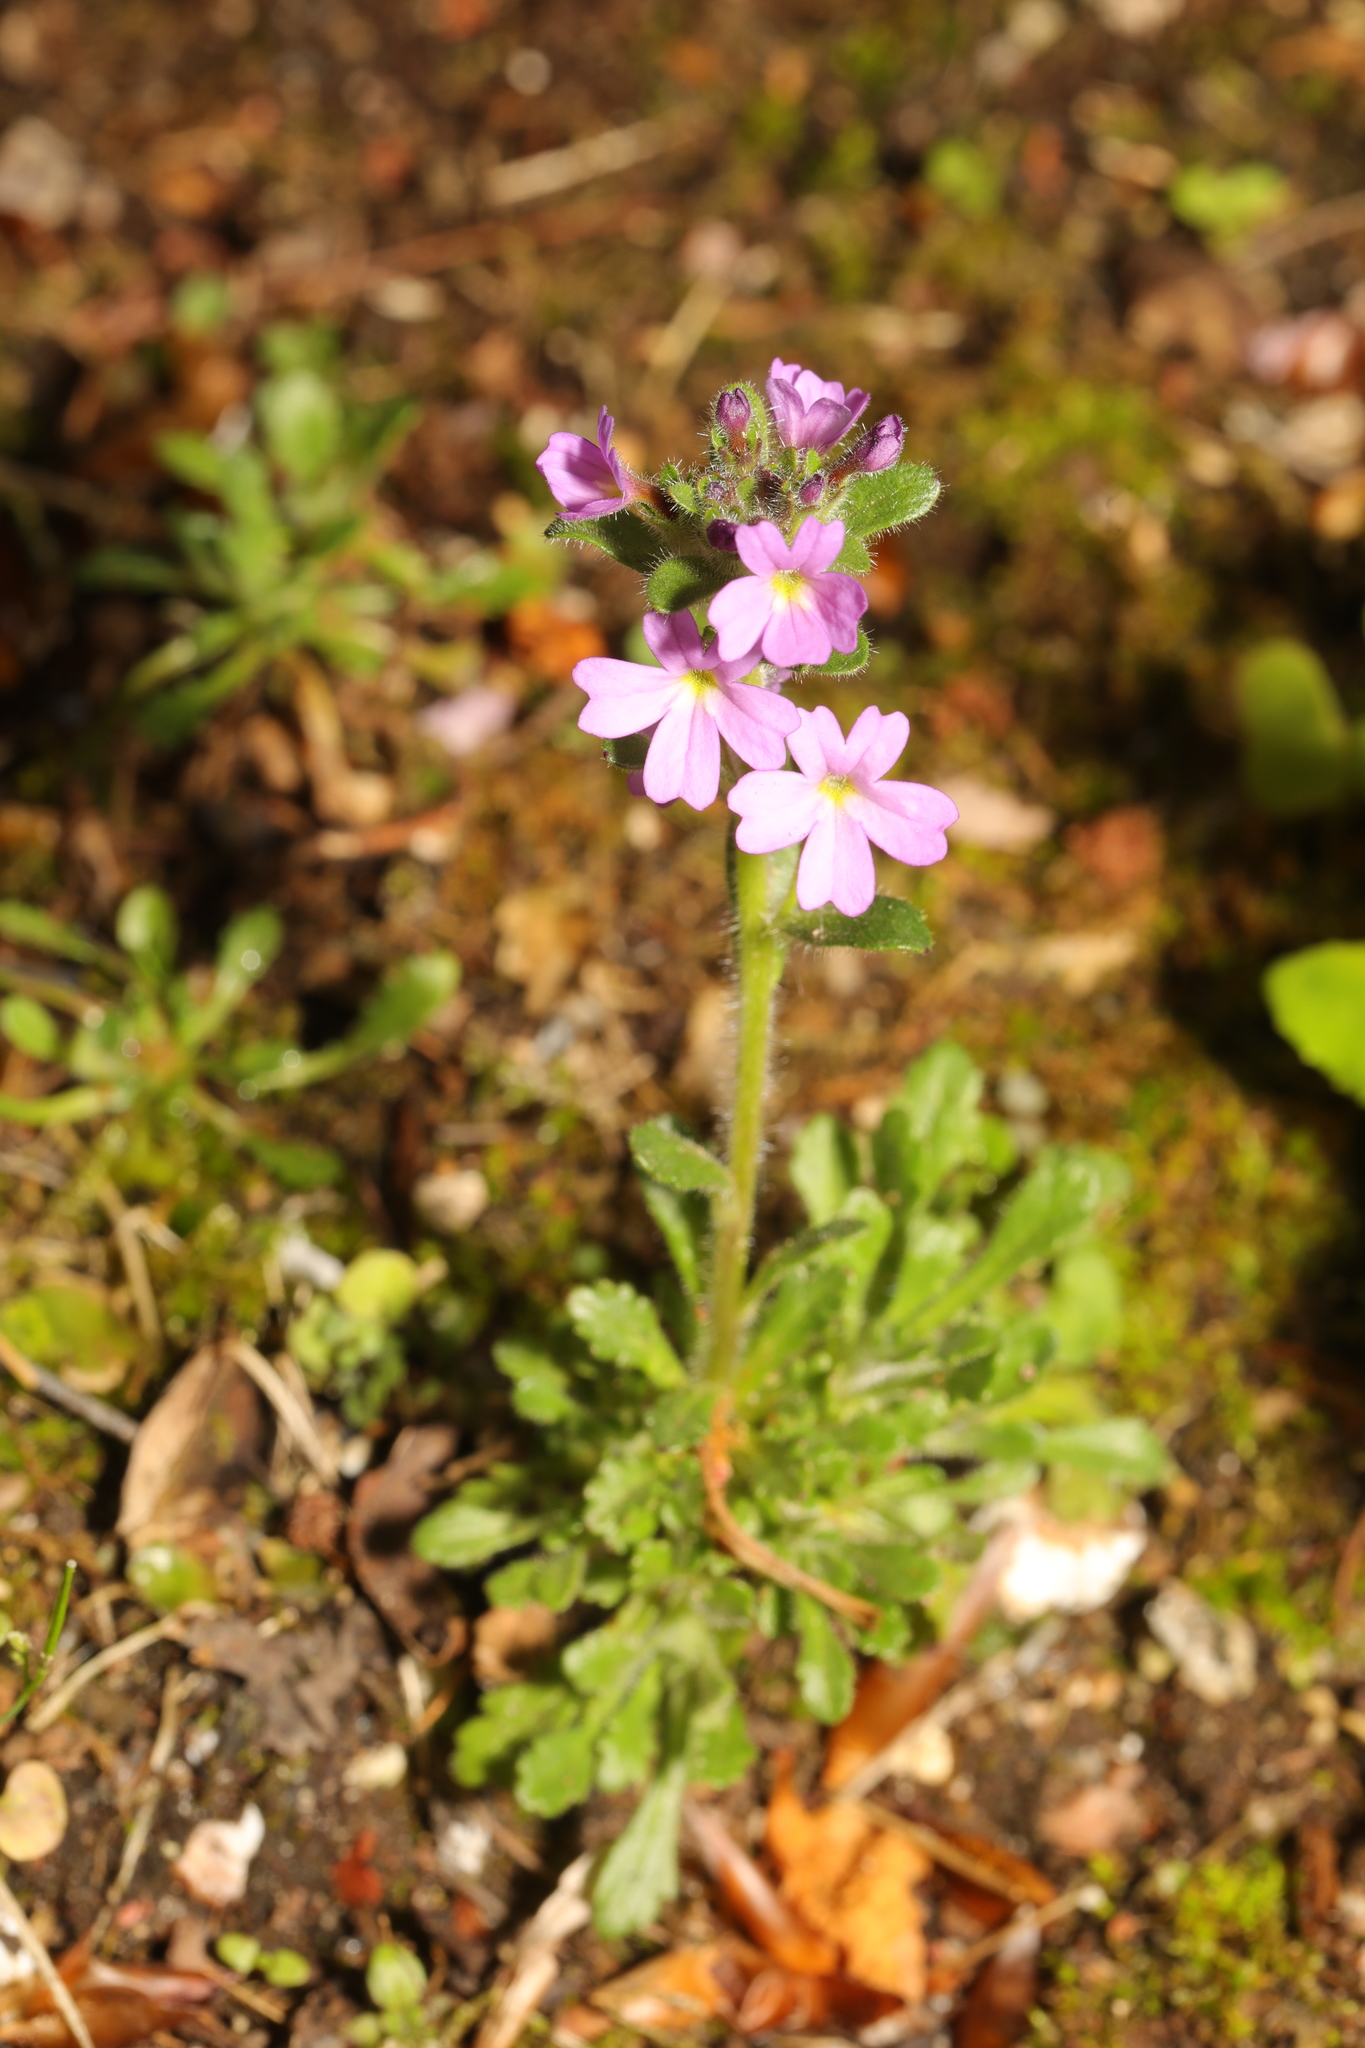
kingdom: Plantae
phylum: Tracheophyta
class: Magnoliopsida
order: Lamiales
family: Plantaginaceae
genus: Erinus
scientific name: Erinus alpinus
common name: Fairy foxglove
